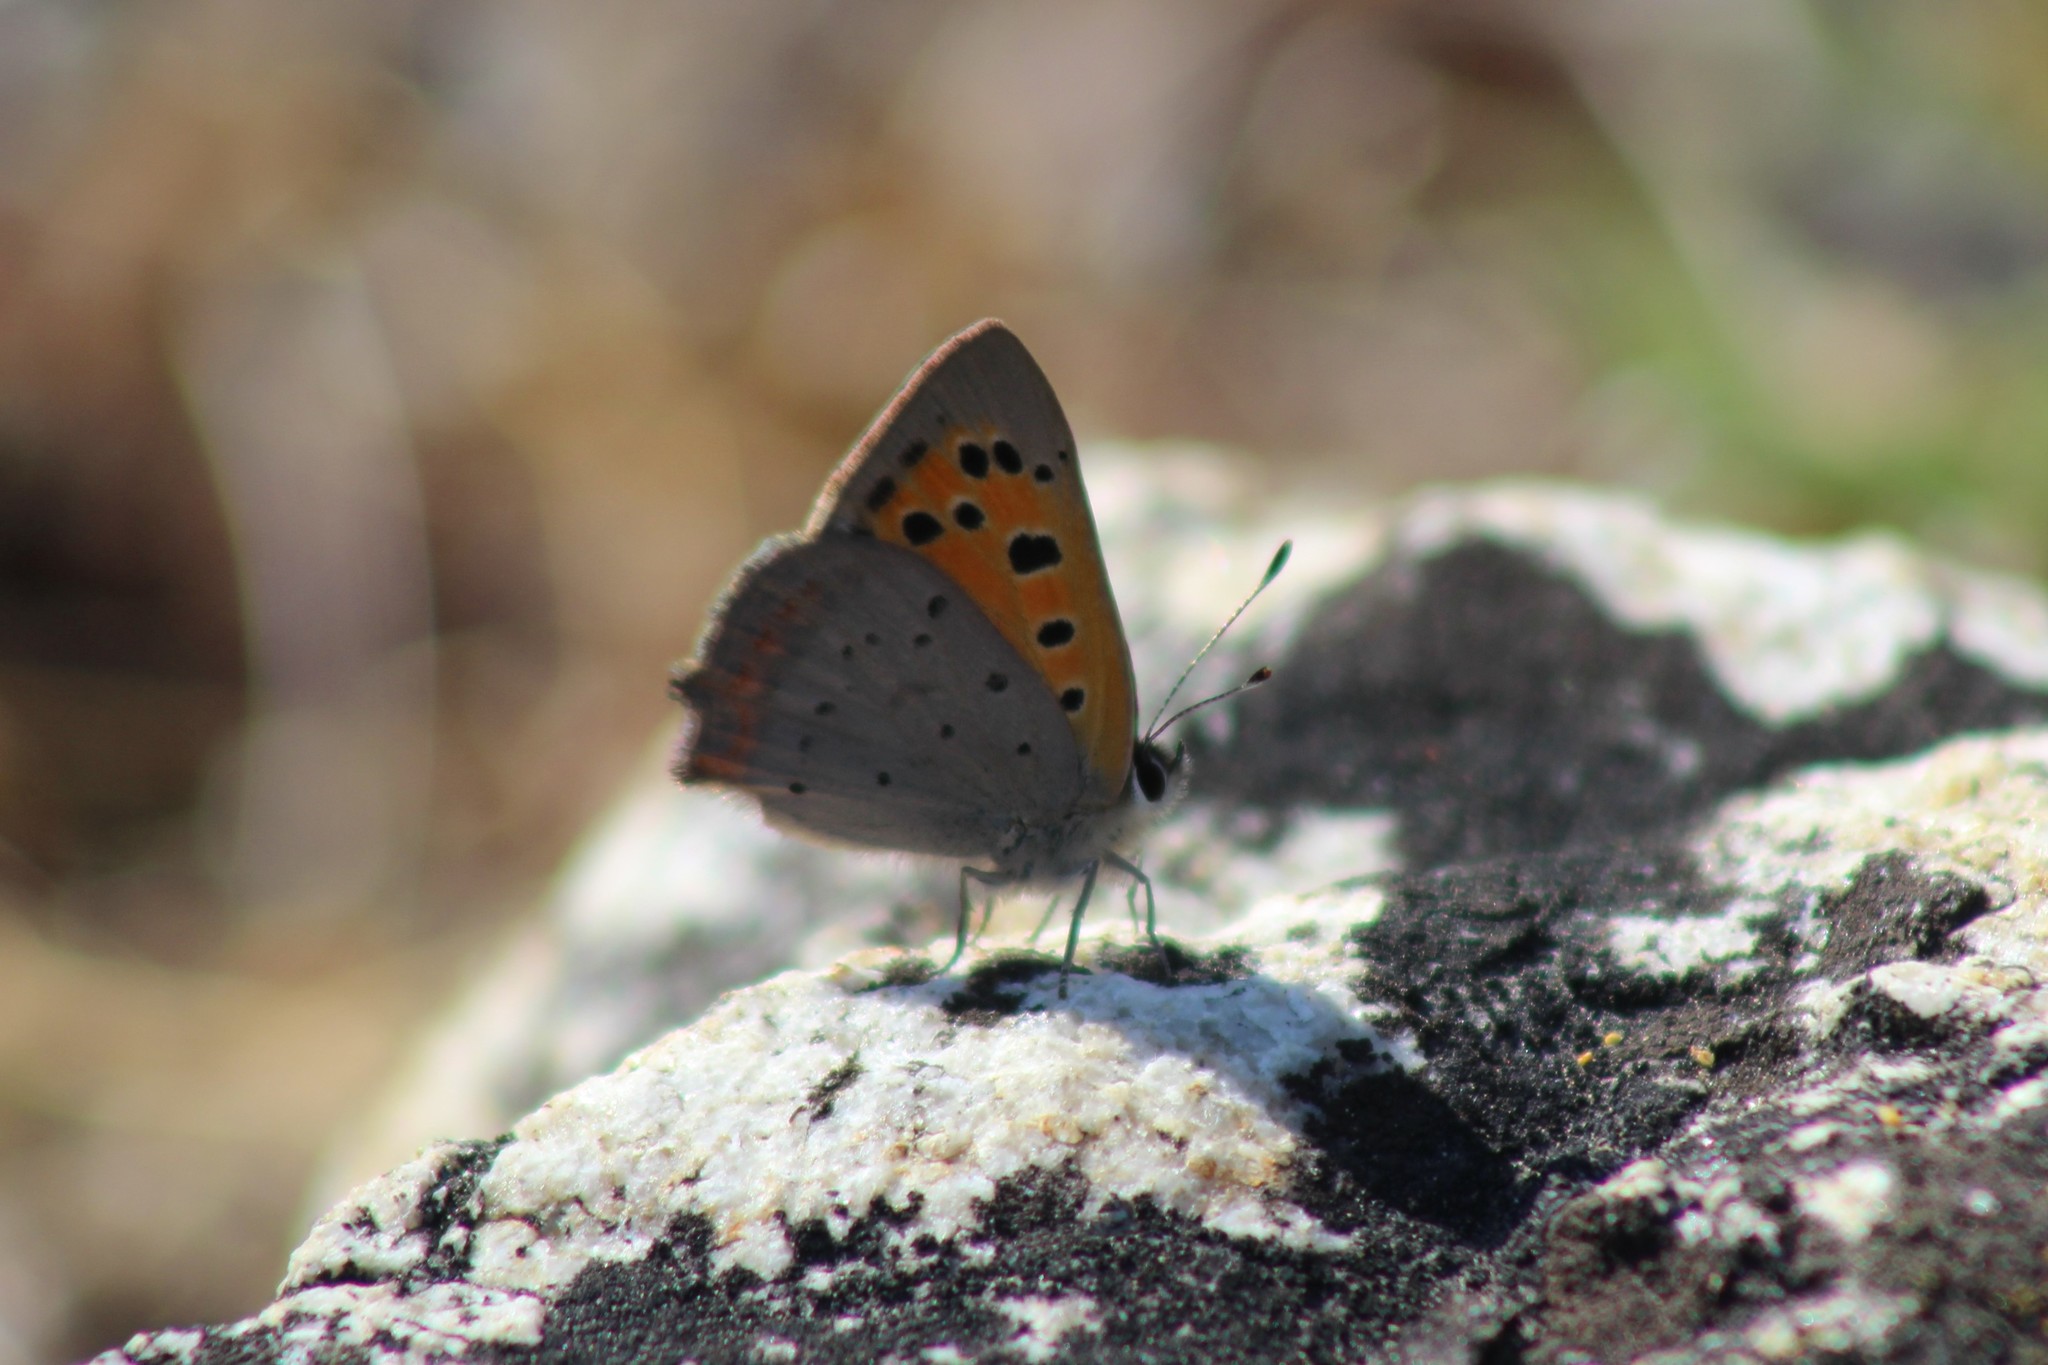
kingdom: Animalia
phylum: Arthropoda
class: Insecta
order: Lepidoptera
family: Lycaenidae
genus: Lycaena
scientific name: Lycaena phlaeas
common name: Small copper
